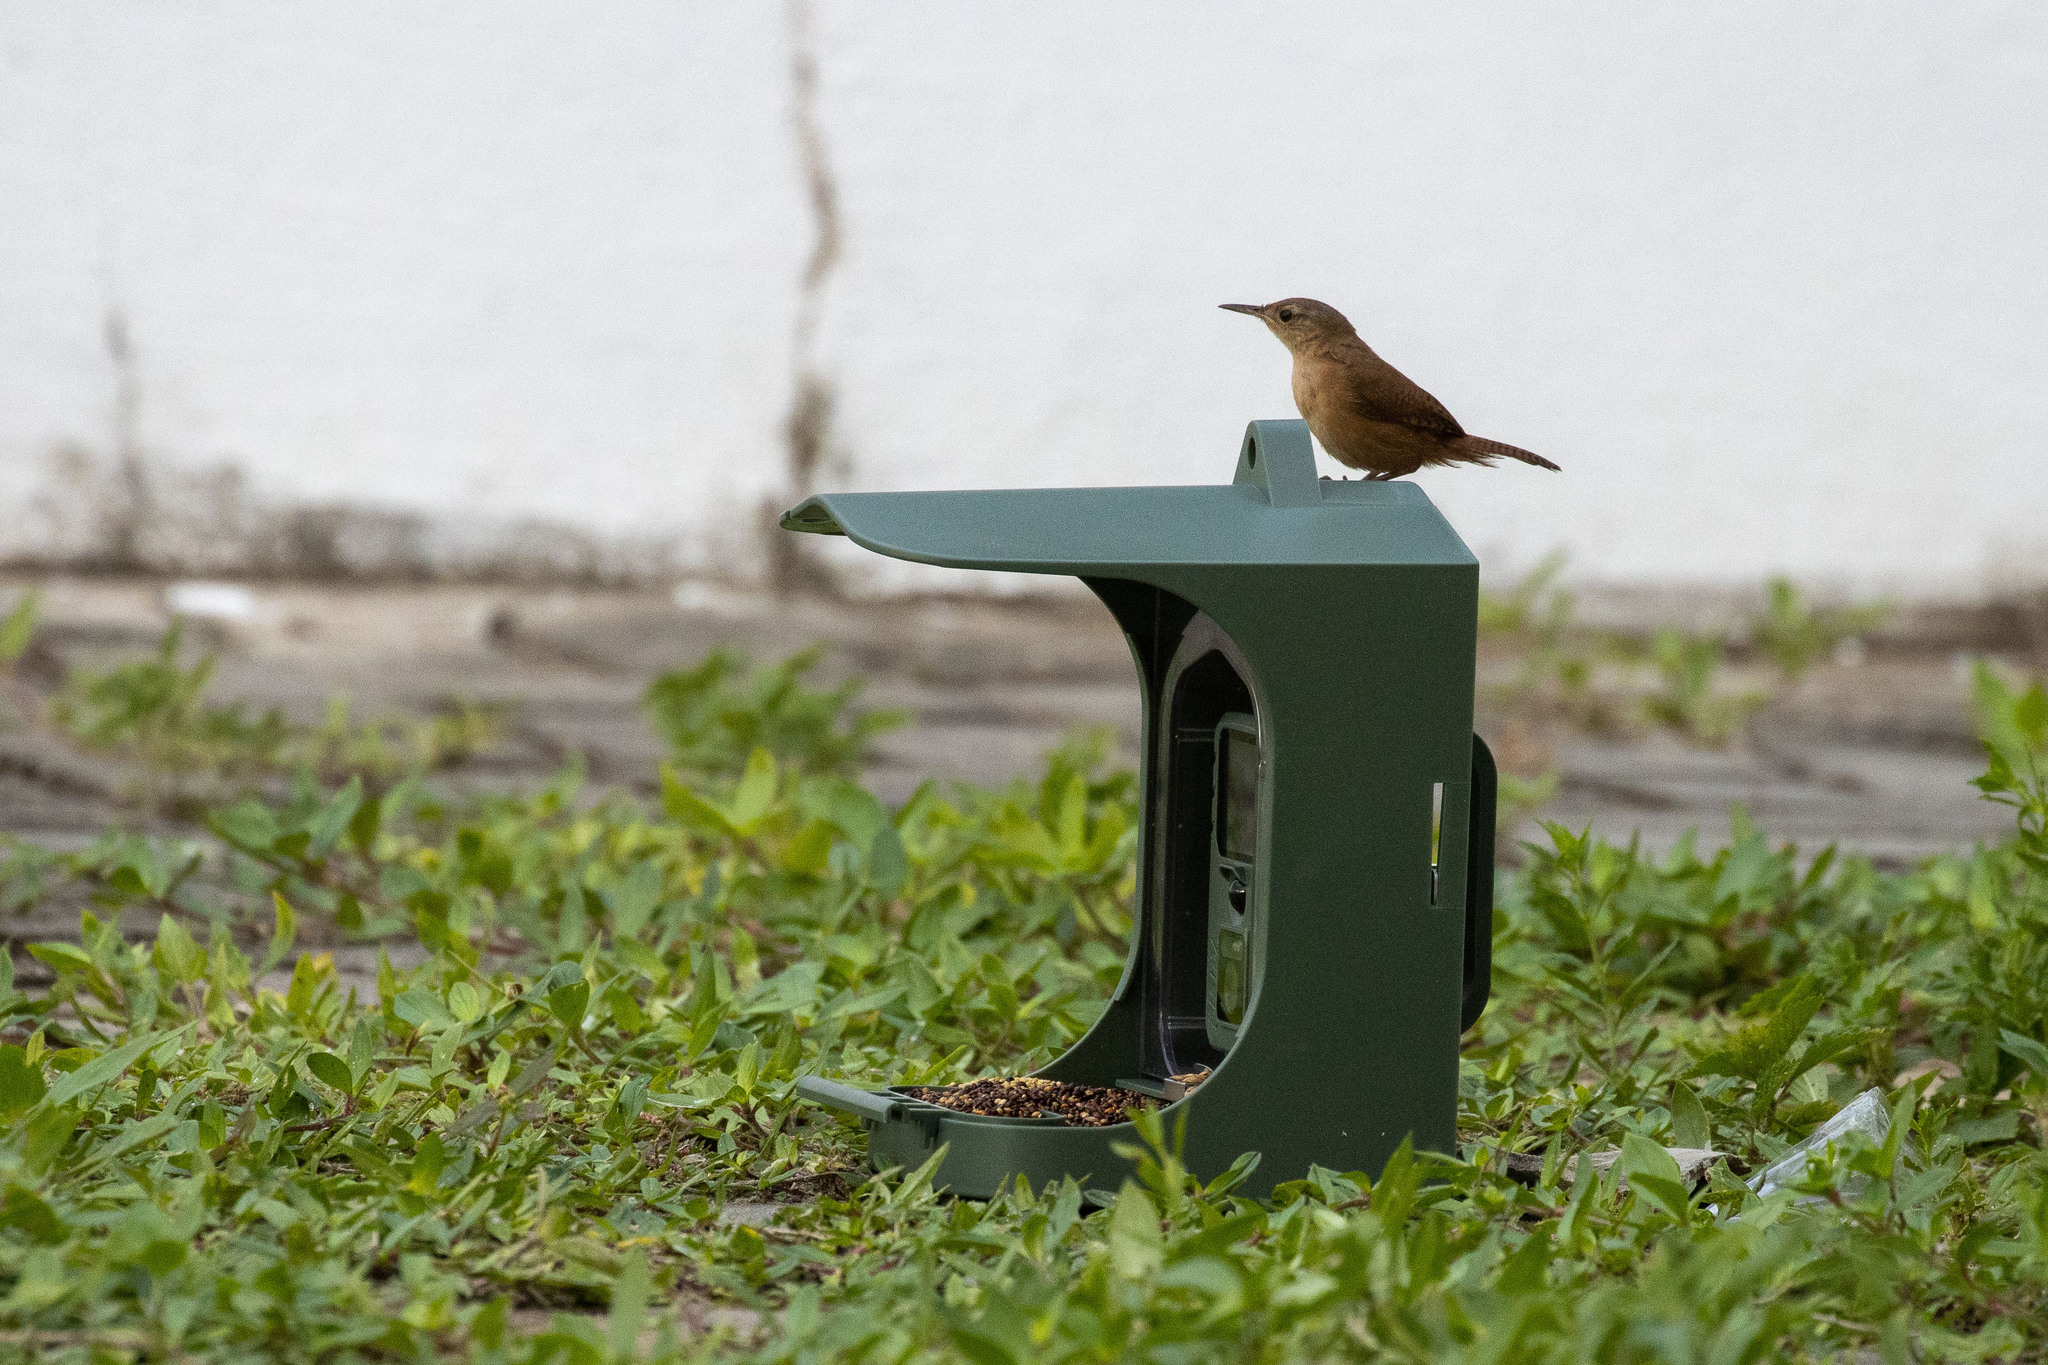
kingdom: Animalia
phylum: Chordata
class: Aves
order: Passeriformes
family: Troglodytidae
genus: Troglodytes
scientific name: Troglodytes aedon
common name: House wren
